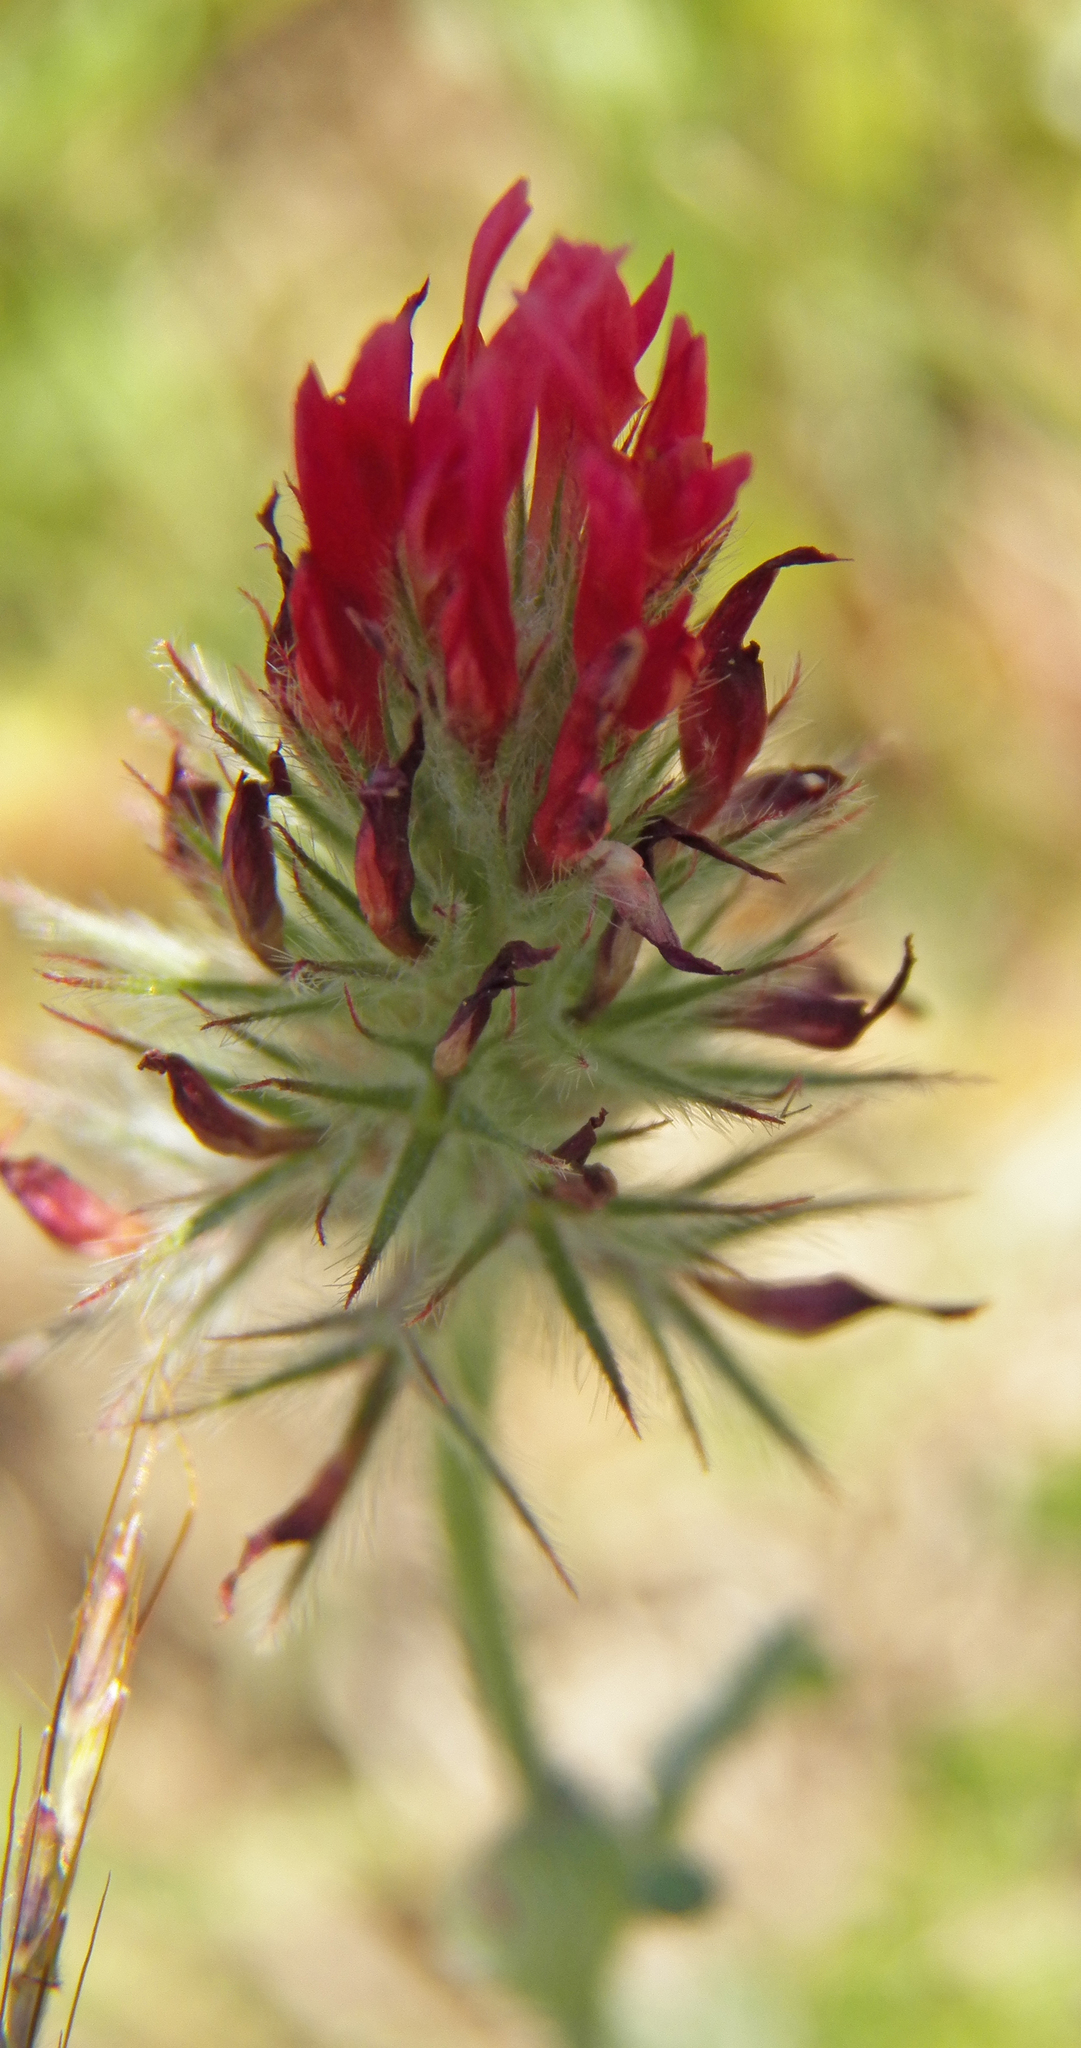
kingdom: Plantae
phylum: Tracheophyta
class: Magnoliopsida
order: Fabales
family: Fabaceae
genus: Trifolium
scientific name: Trifolium incarnatum
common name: Crimson clover
